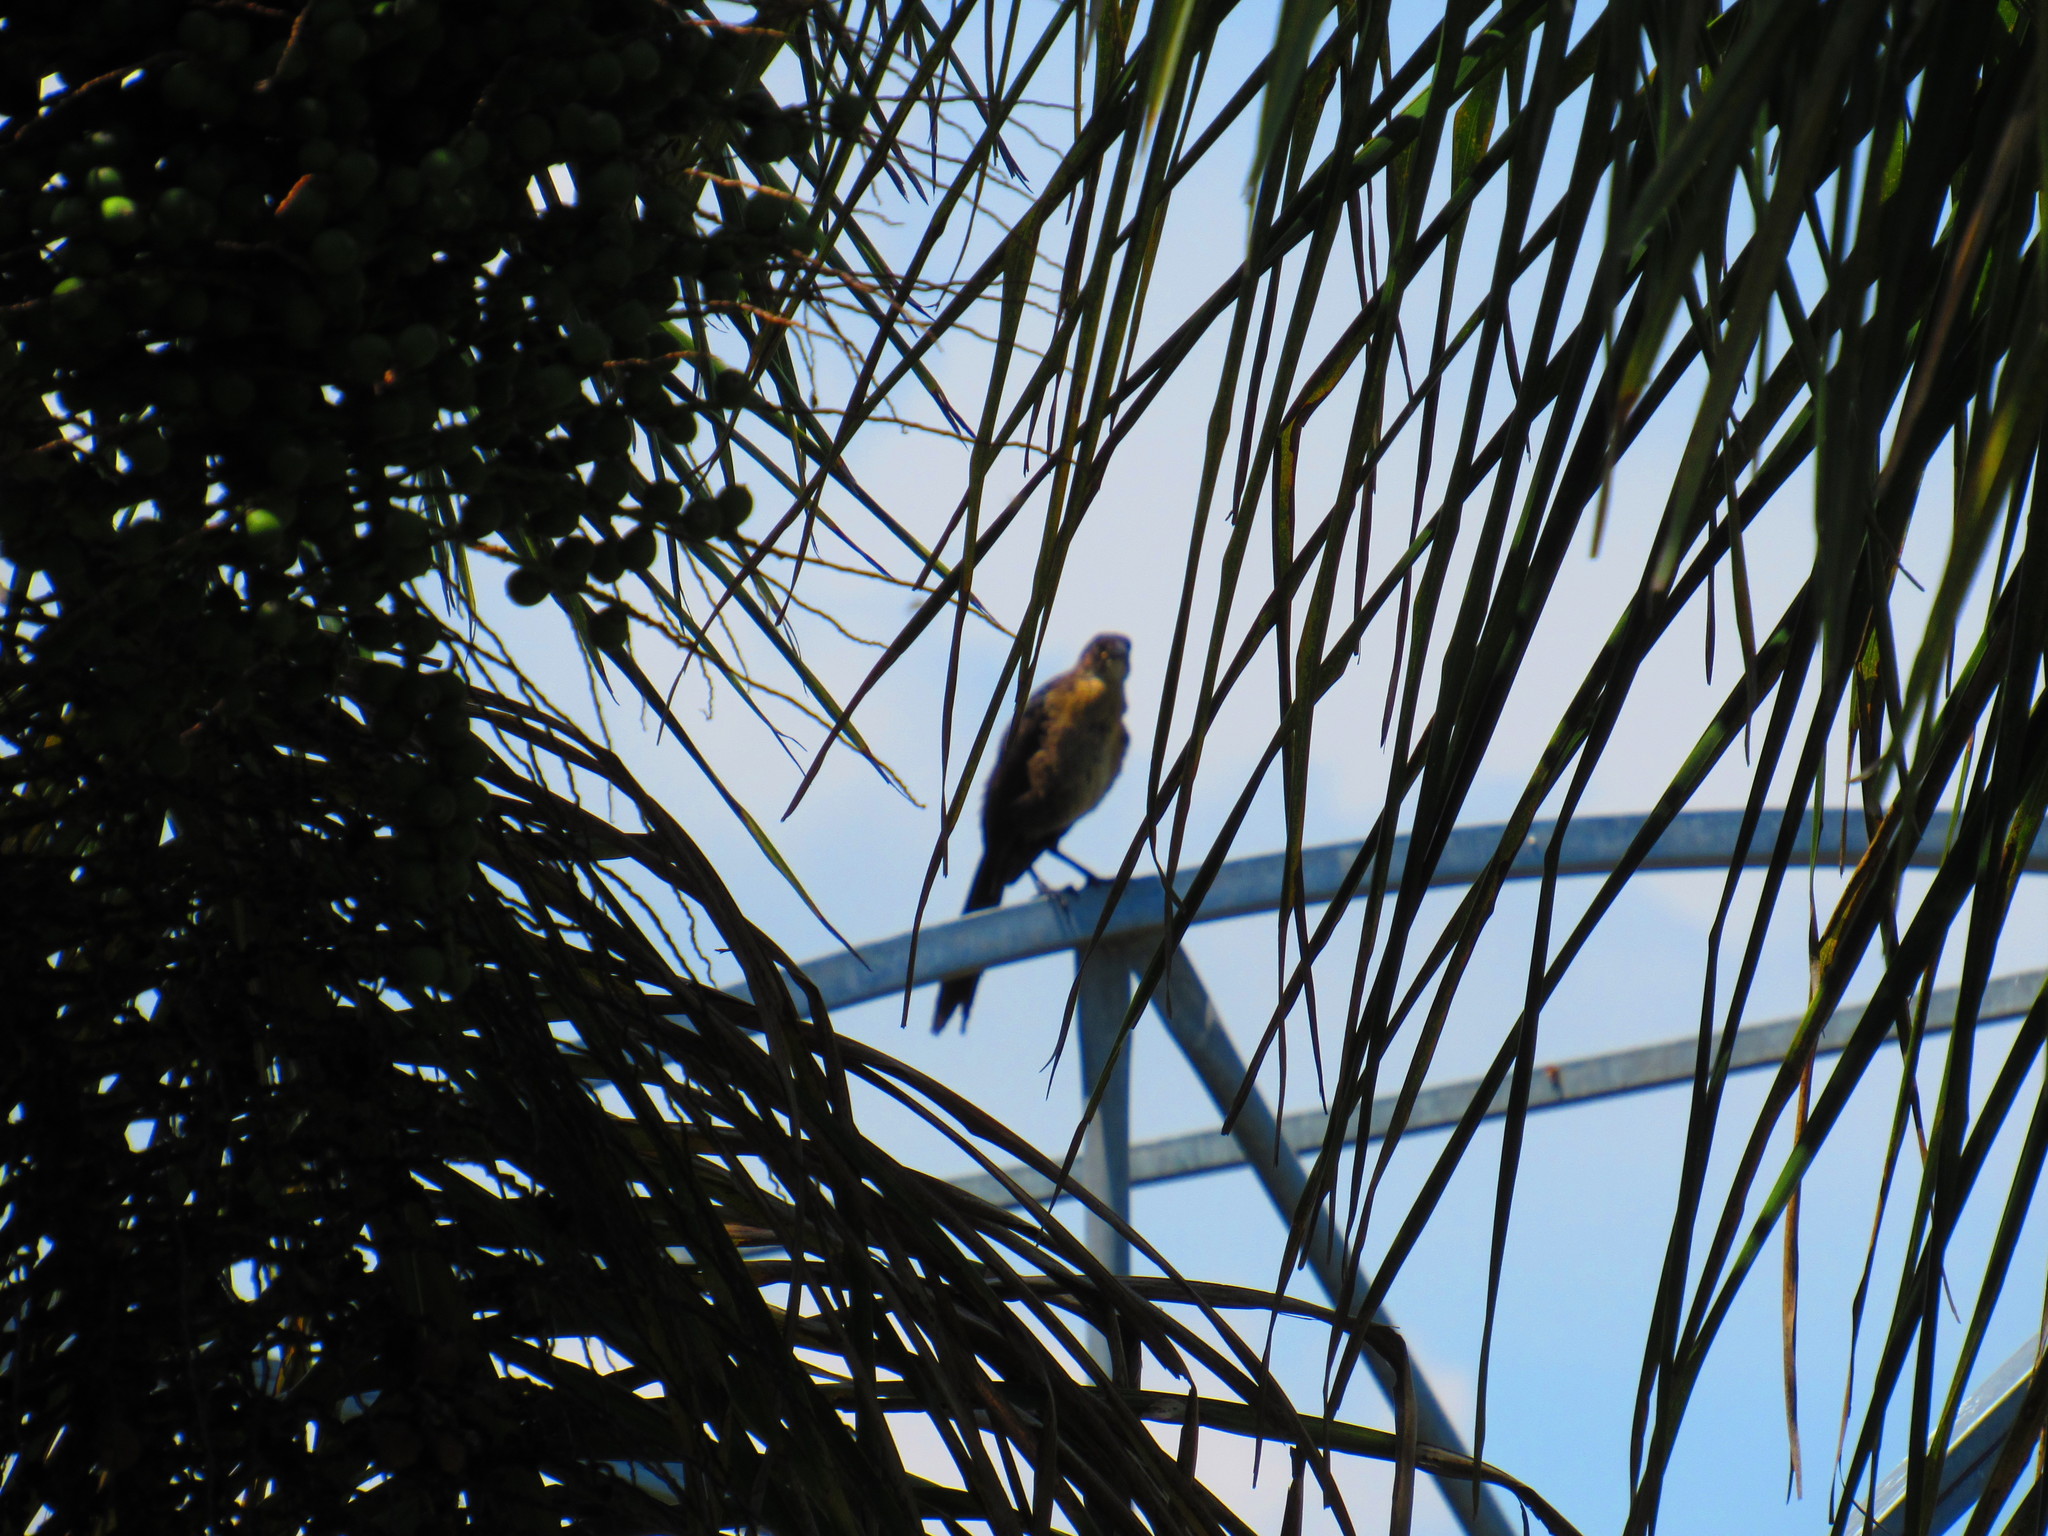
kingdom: Animalia
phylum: Chordata
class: Aves
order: Passeriformes
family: Icteridae
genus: Quiscalus
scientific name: Quiscalus mexicanus
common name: Great-tailed grackle
